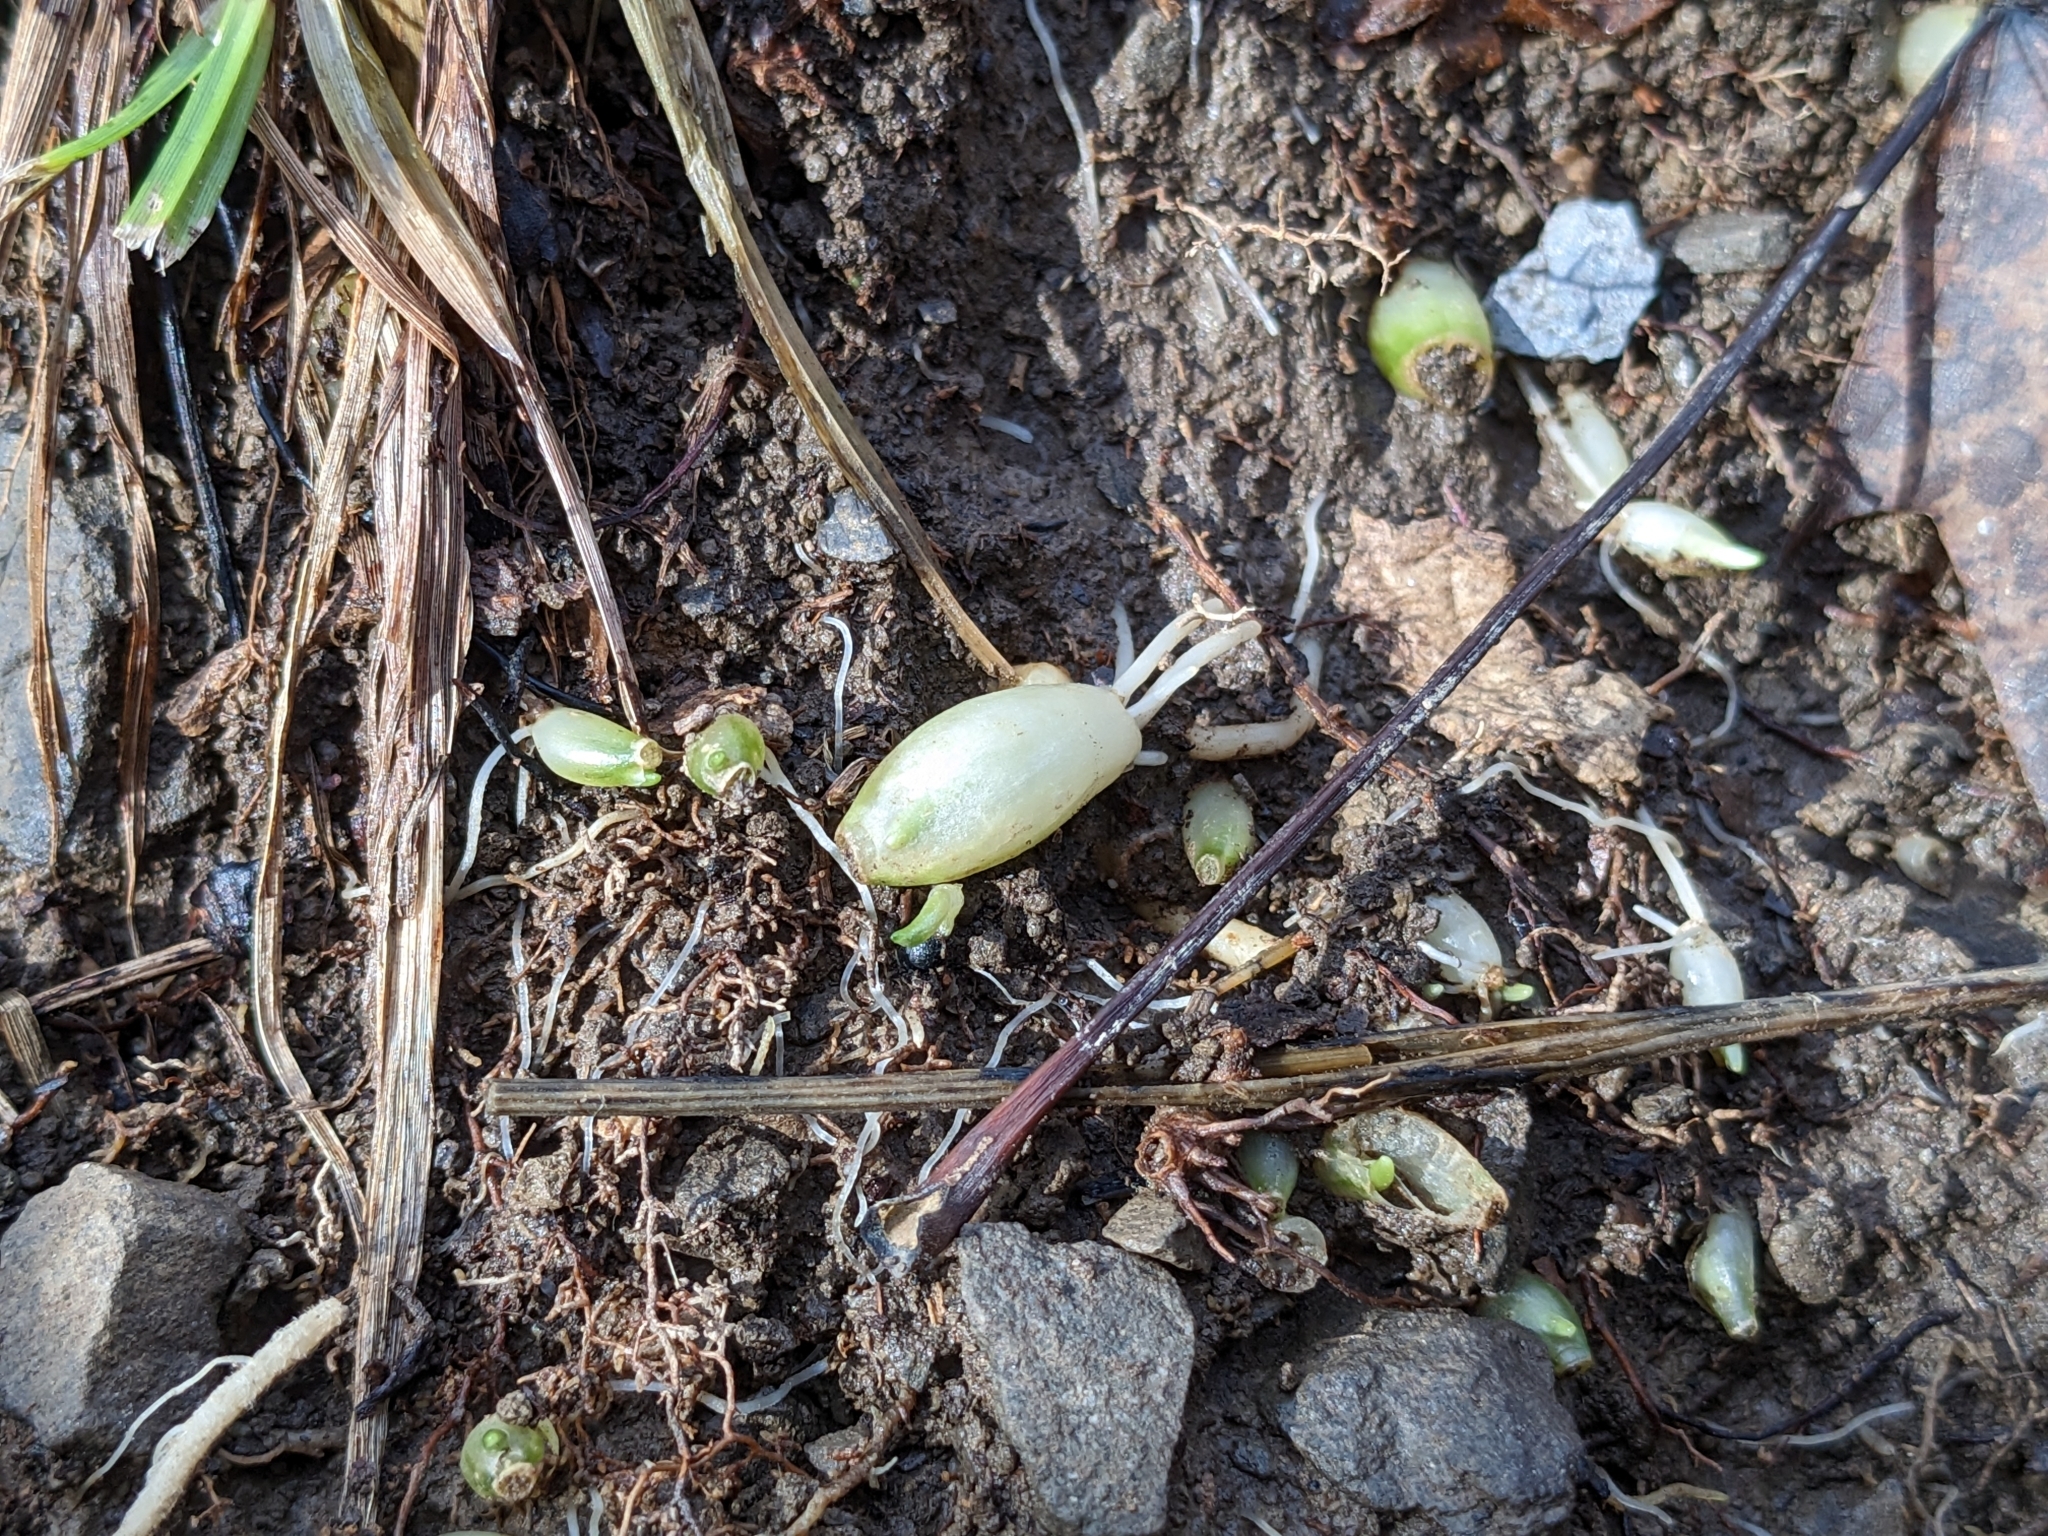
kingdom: Plantae
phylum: Tracheophyta
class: Liliopsida
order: Asparagales
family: Amaryllidaceae
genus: Allium
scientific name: Allium ursinum
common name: Ramsons
